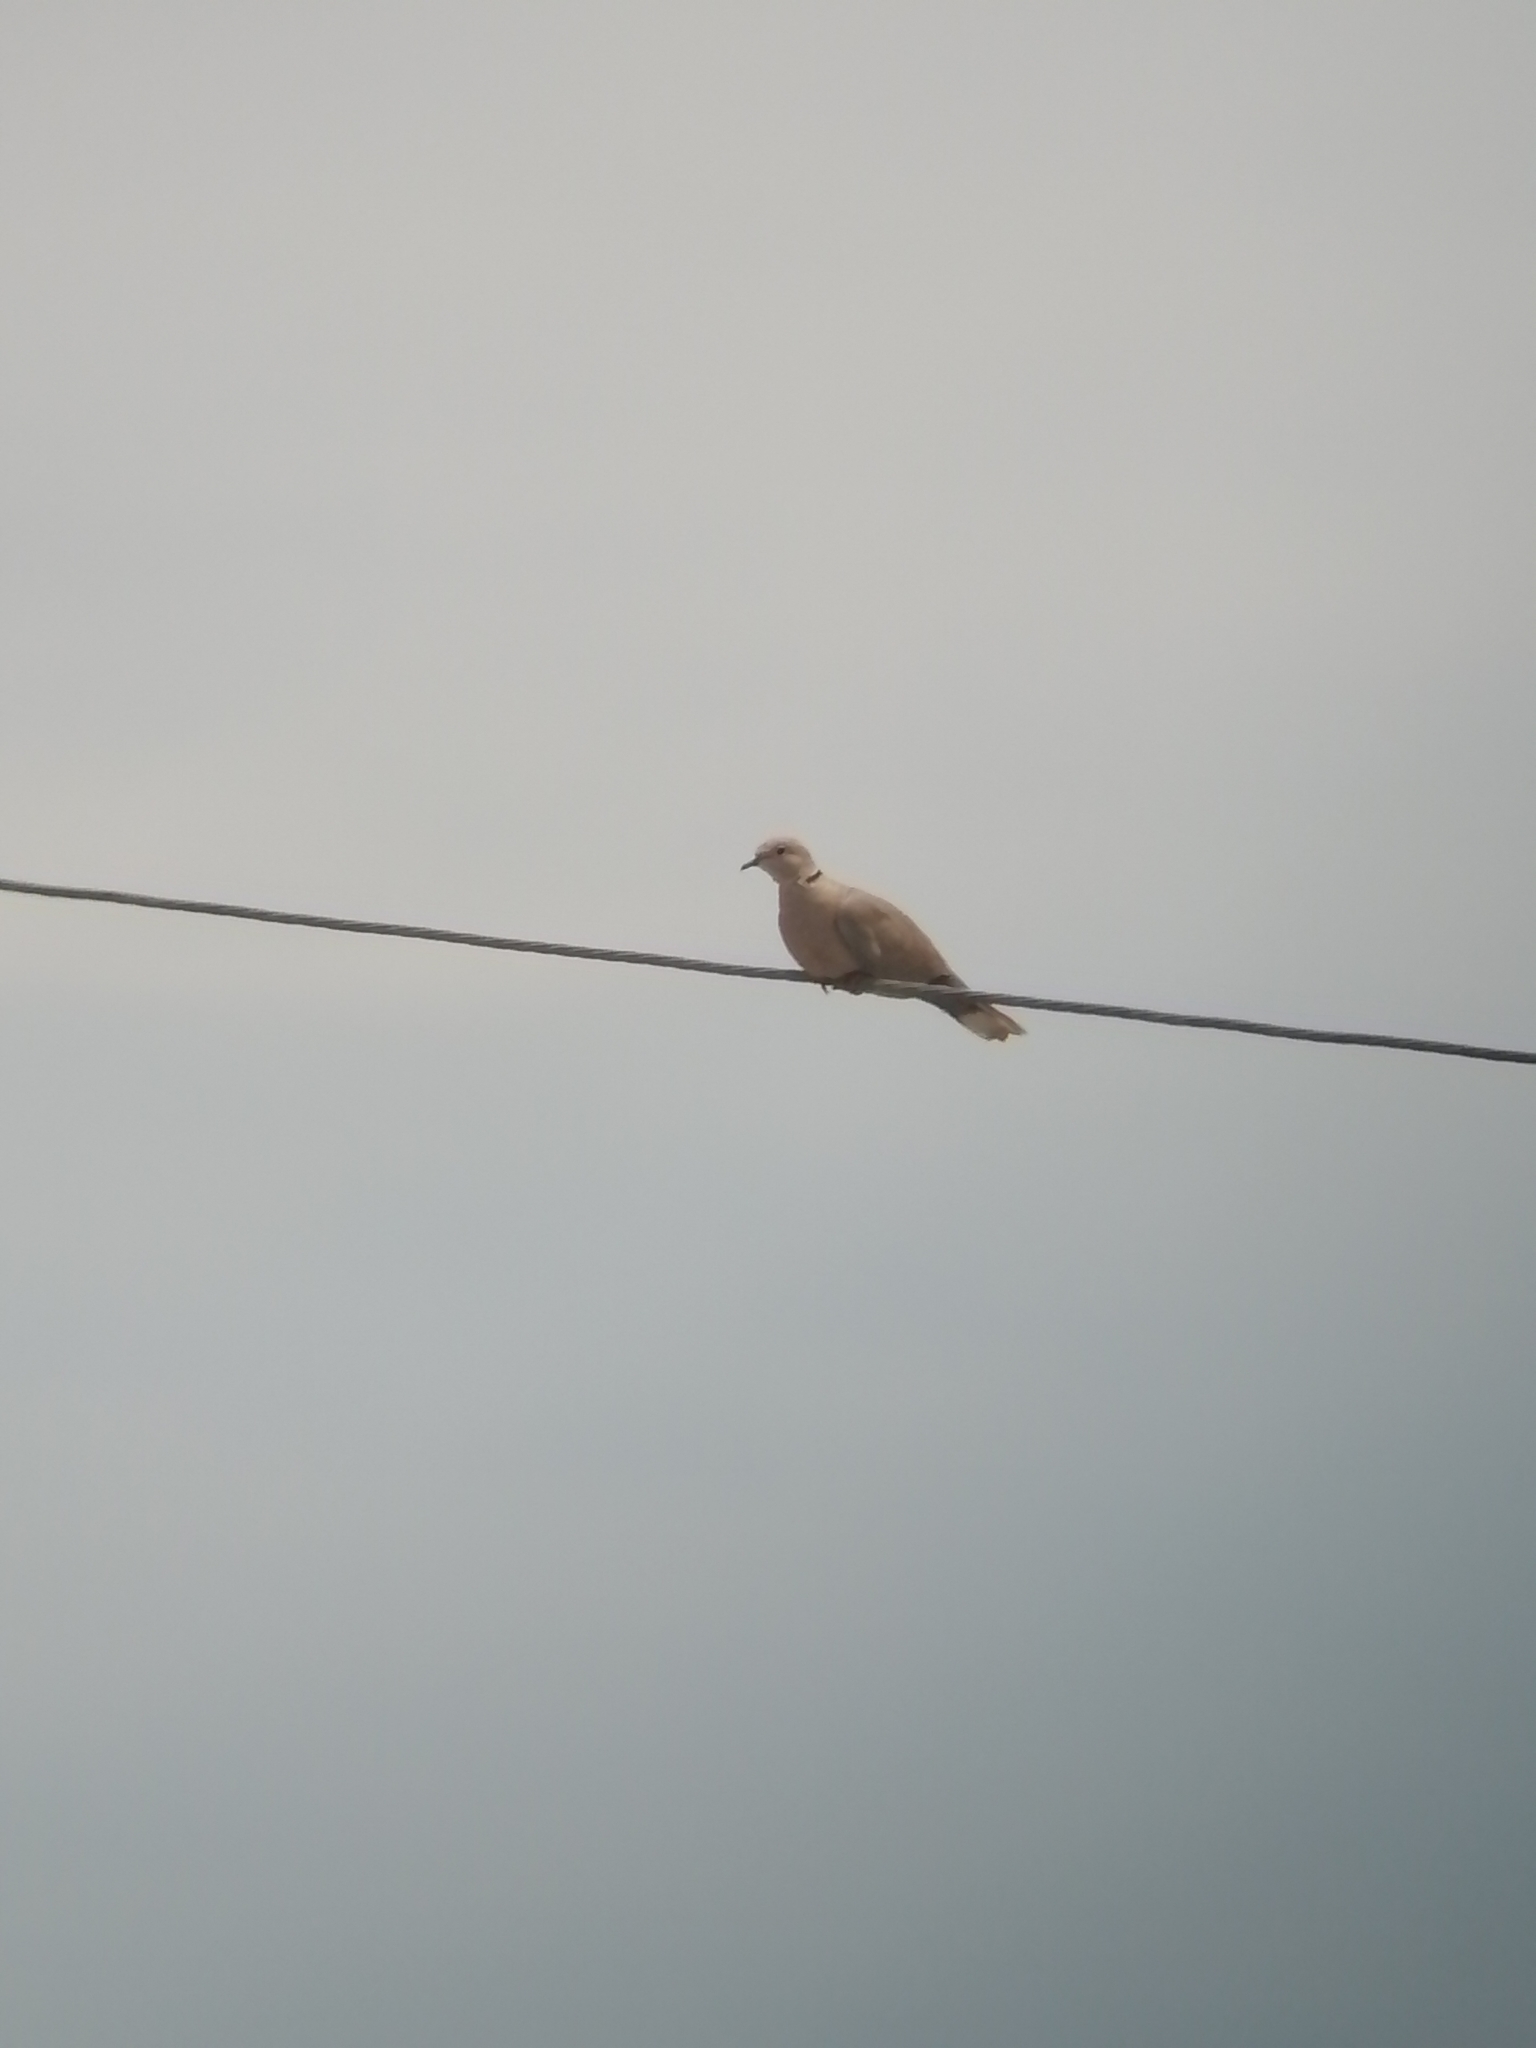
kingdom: Animalia
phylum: Chordata
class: Aves
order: Columbiformes
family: Columbidae
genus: Streptopelia
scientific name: Streptopelia decaocto
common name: Eurasian collared dove
